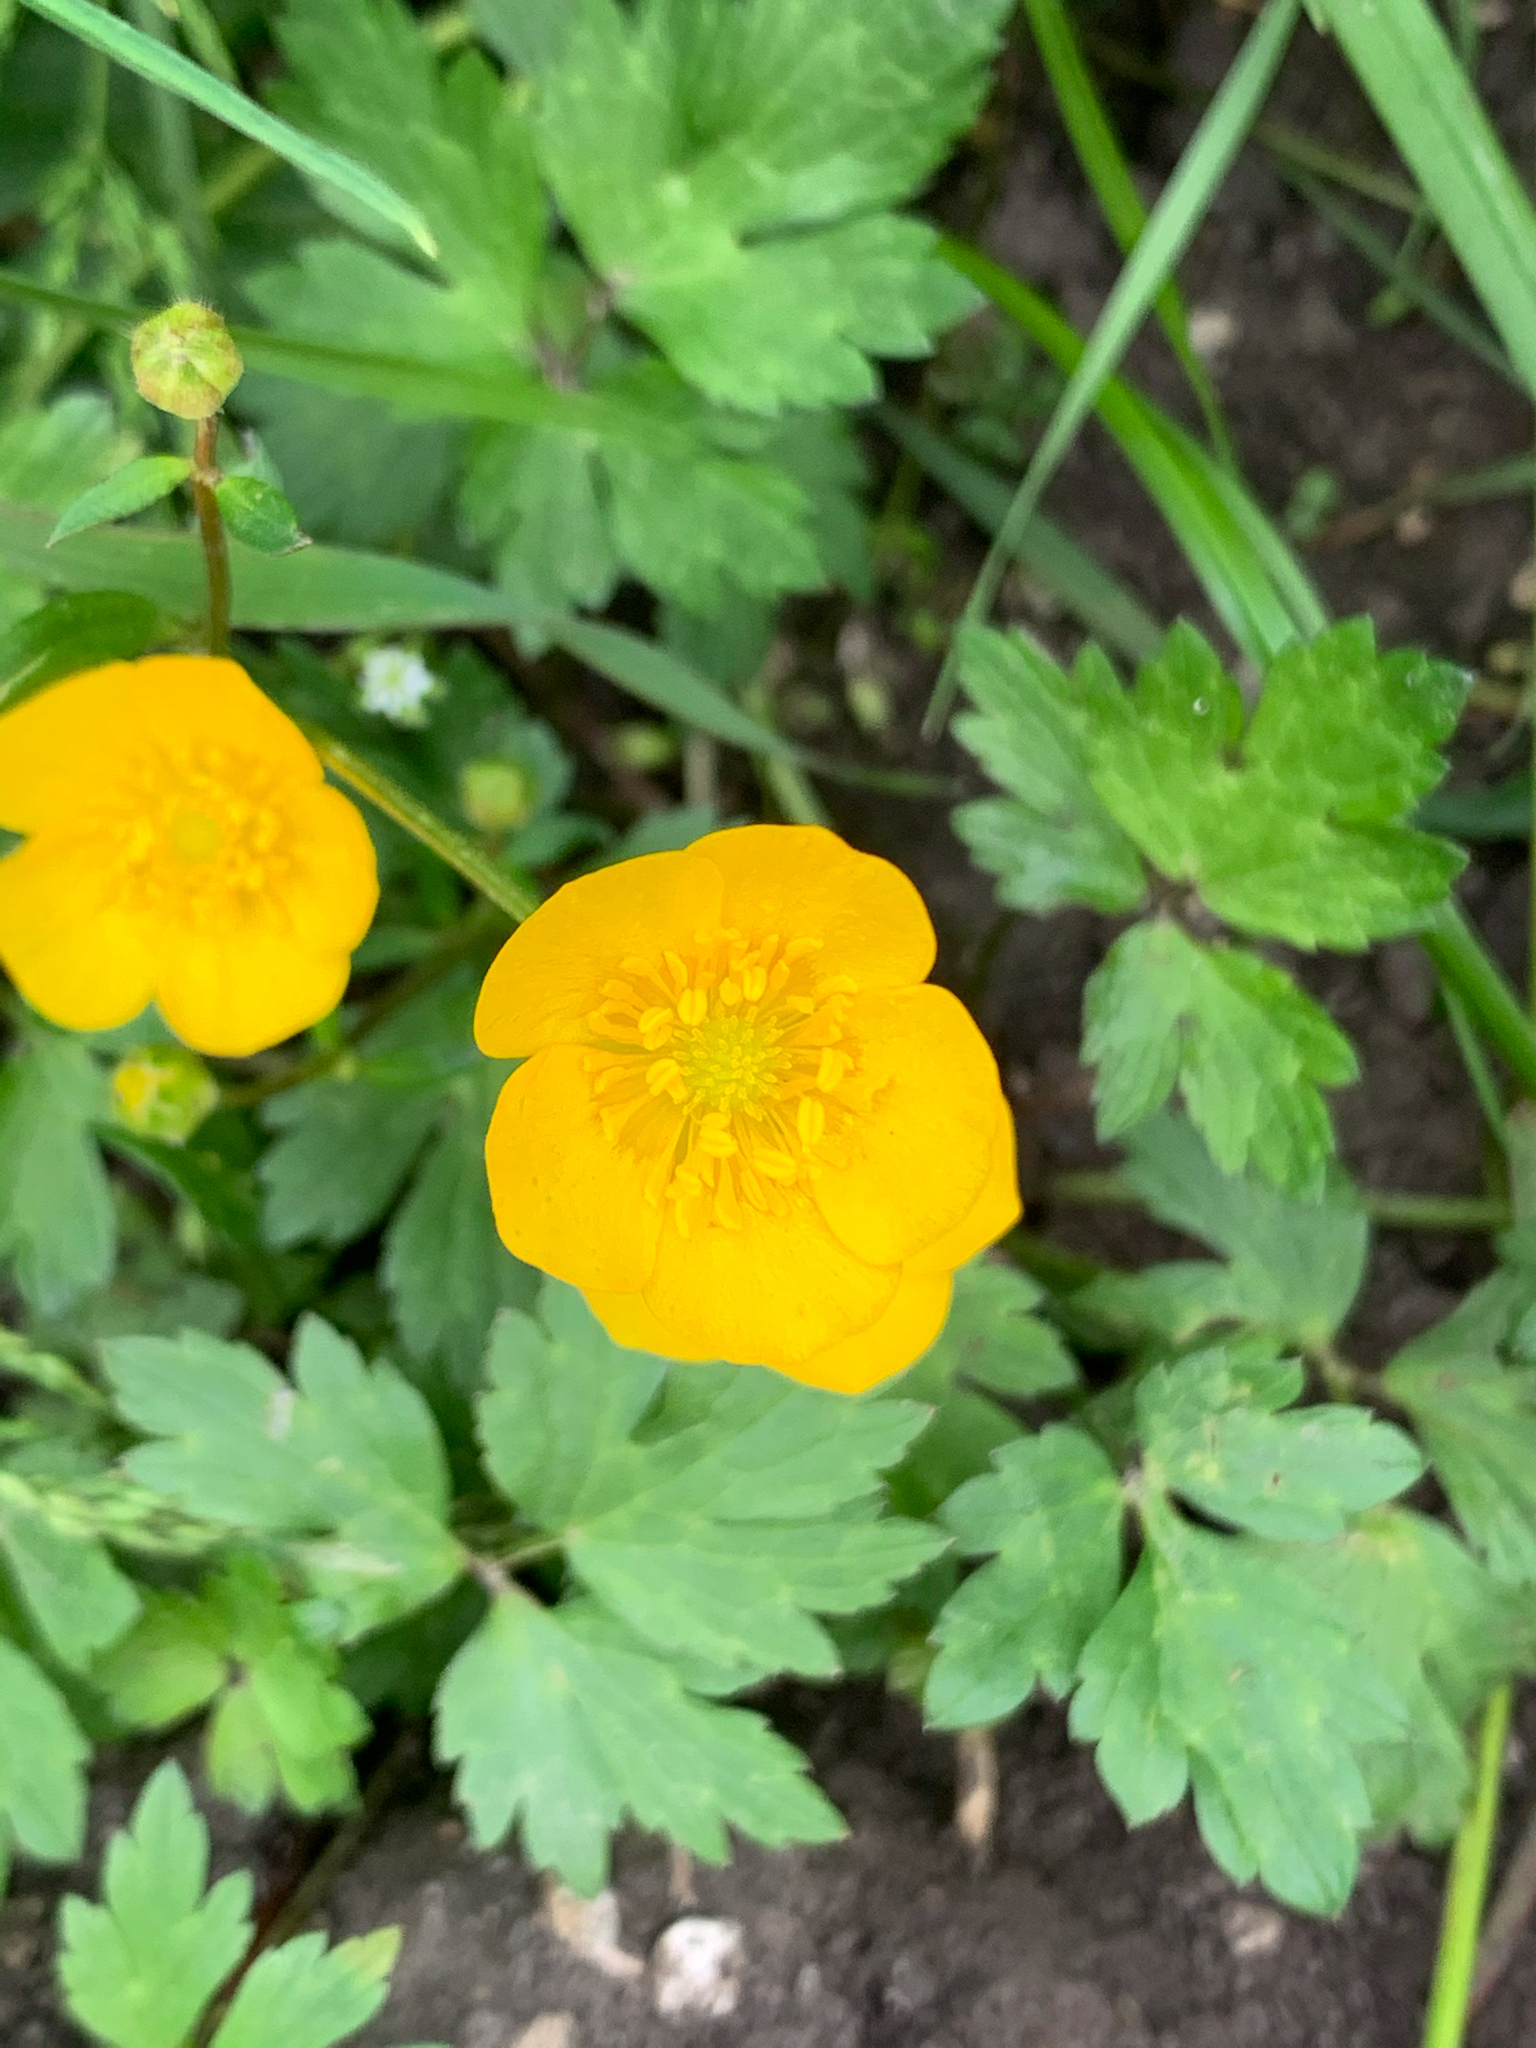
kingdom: Plantae
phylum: Tracheophyta
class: Magnoliopsida
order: Ranunculales
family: Ranunculaceae
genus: Ranunculus
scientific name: Ranunculus repens
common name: Creeping buttercup
